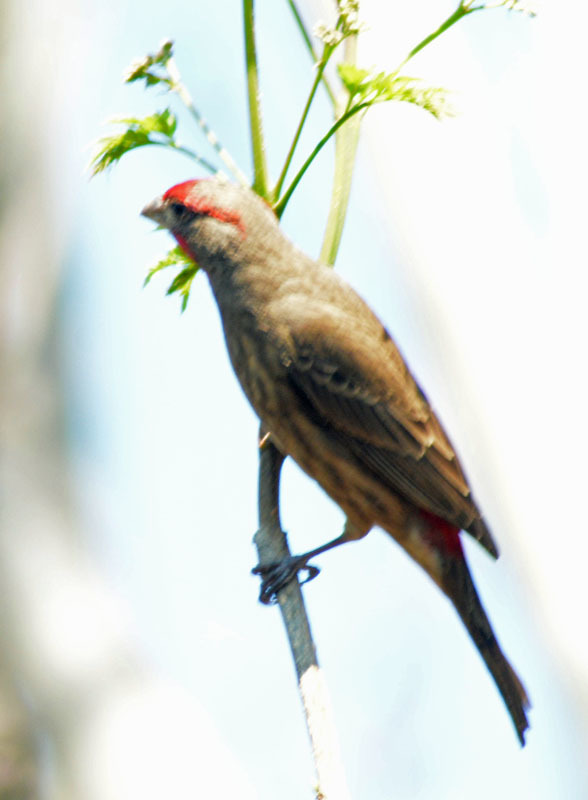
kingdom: Animalia
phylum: Chordata
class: Aves
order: Passeriformes
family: Fringillidae
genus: Haemorhous
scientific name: Haemorhous mexicanus
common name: House finch
